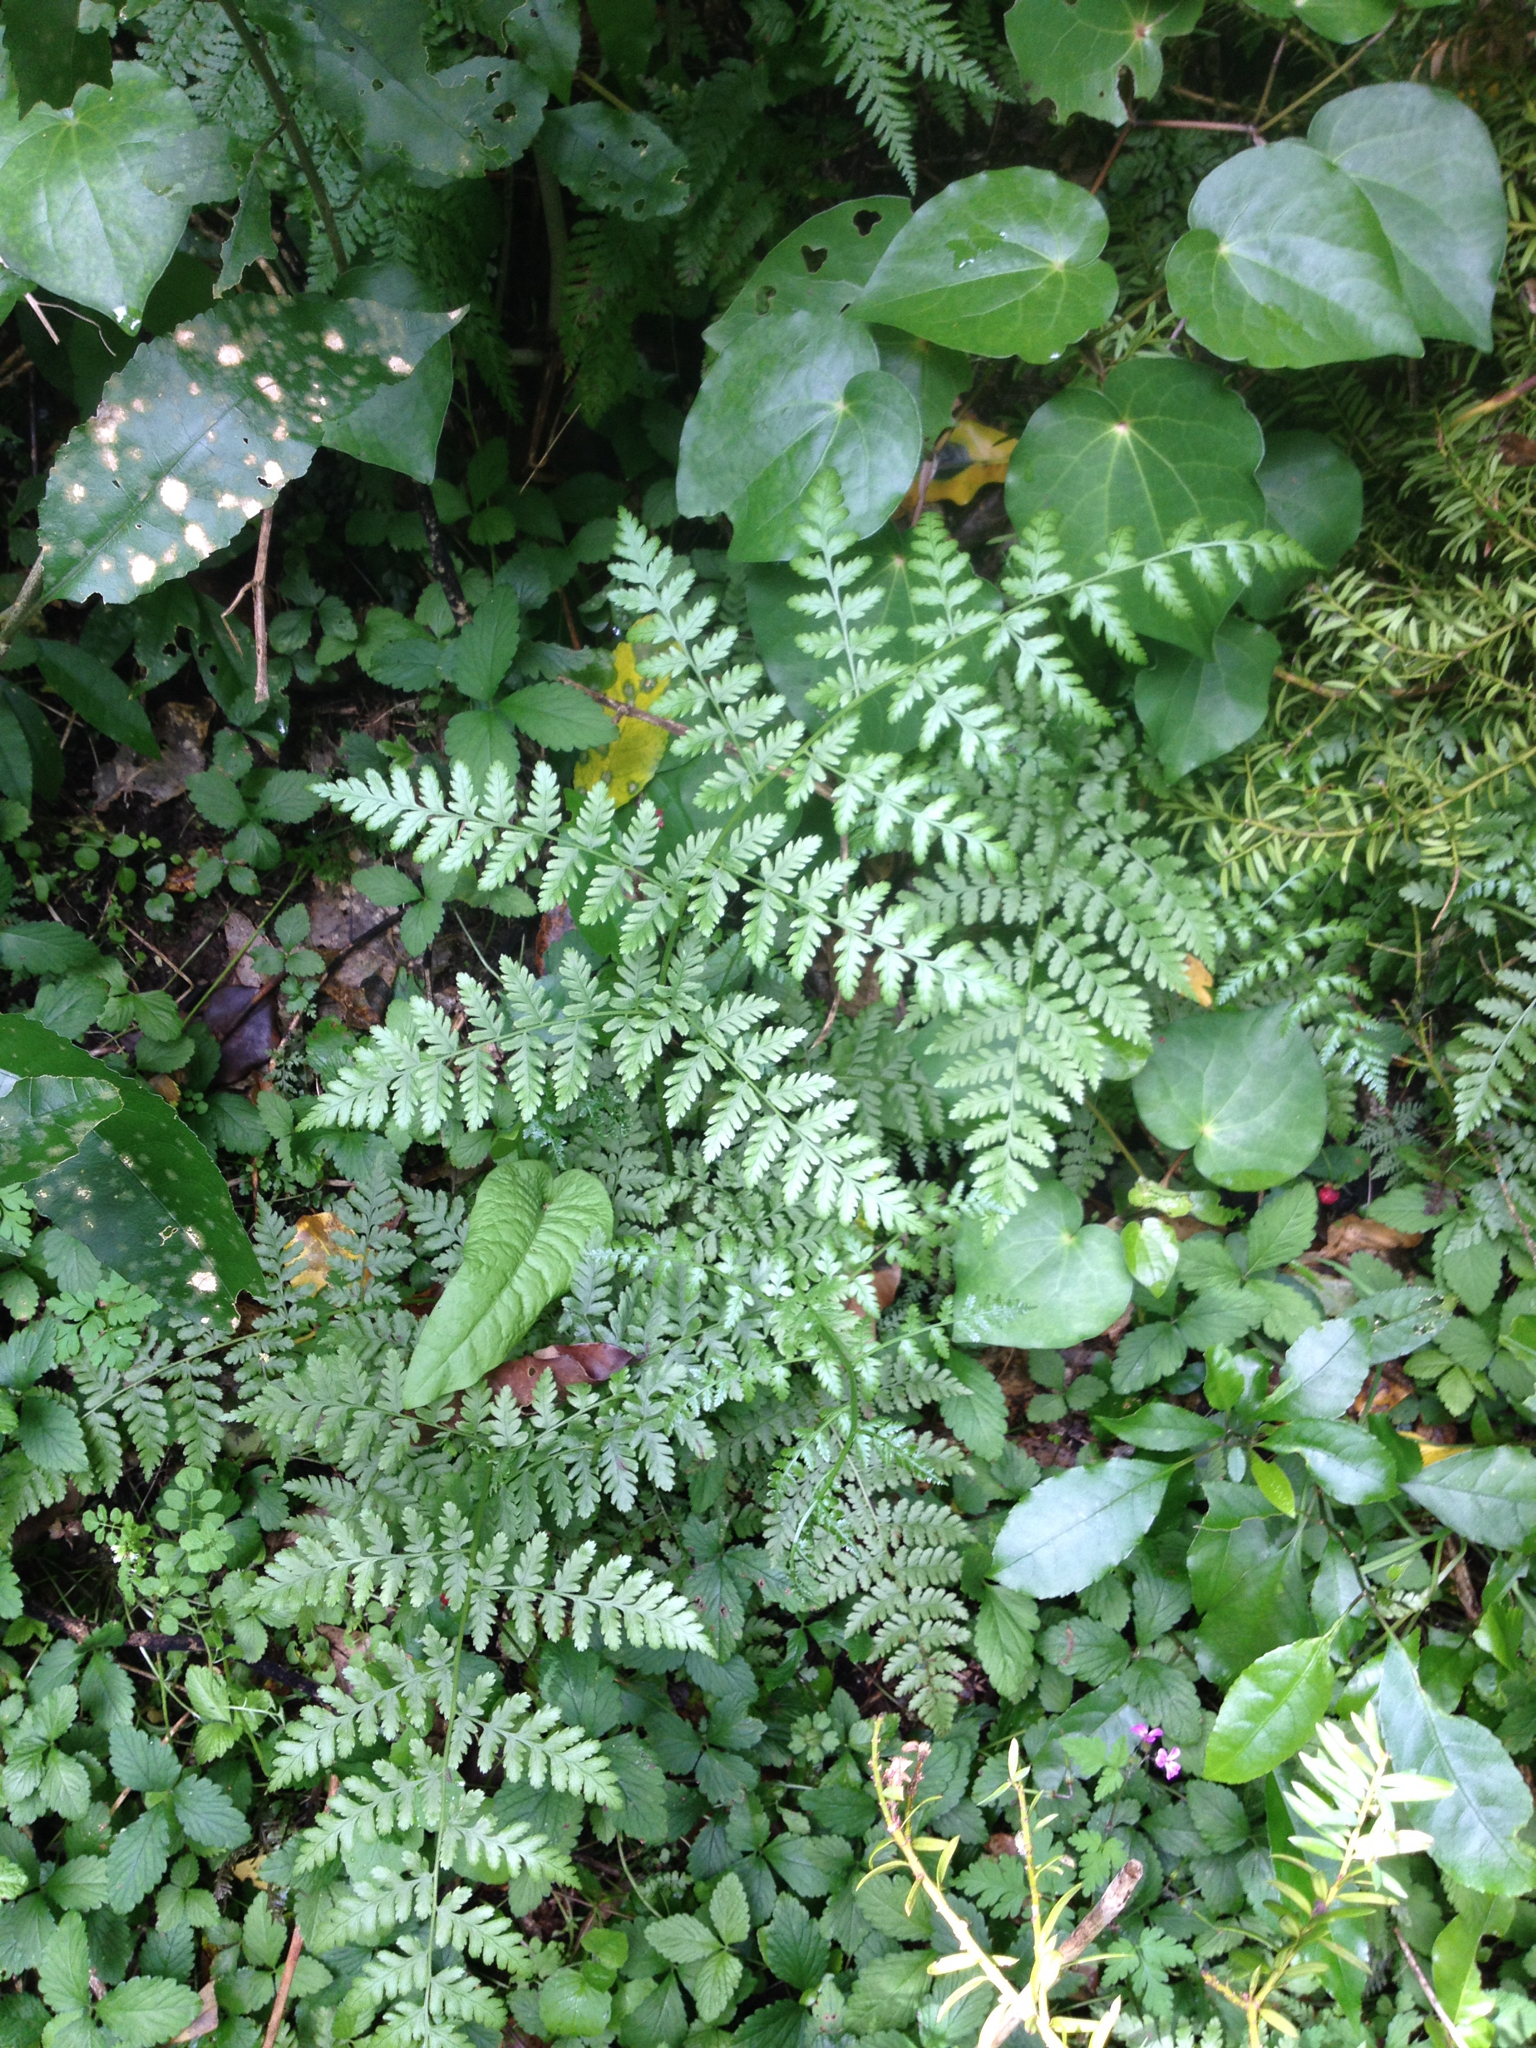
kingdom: Plantae
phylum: Tracheophyta
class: Polypodiopsida
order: Polypodiales
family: Athyriaceae
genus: Diplazium
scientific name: Diplazium australe
